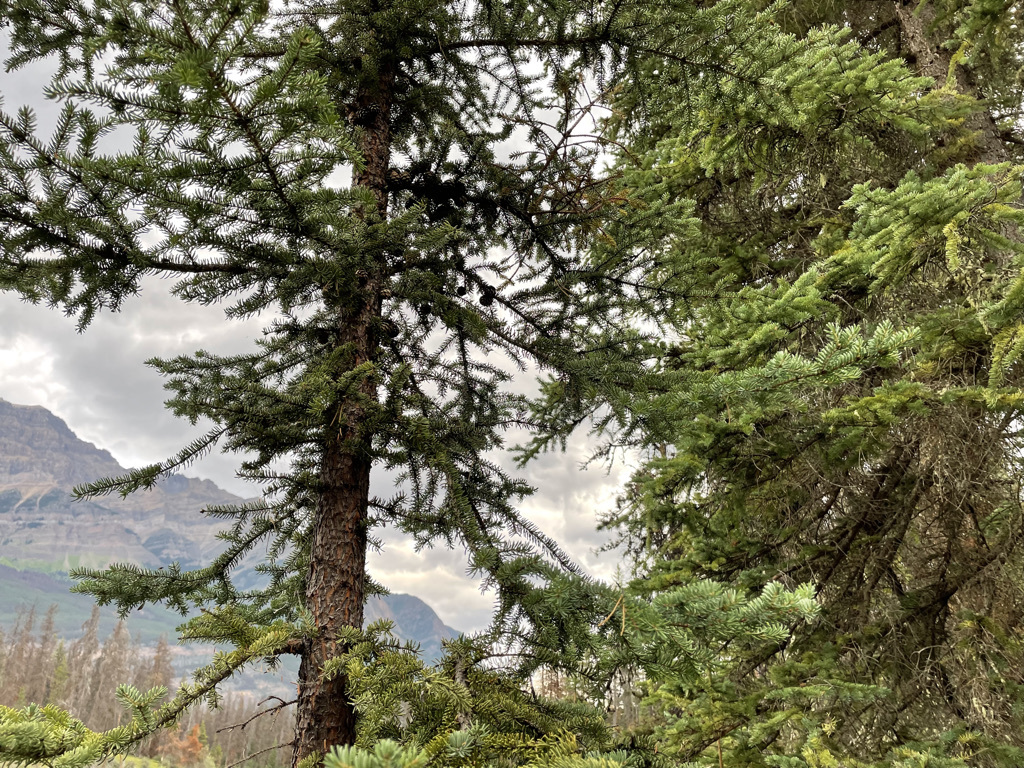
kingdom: Plantae
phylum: Tracheophyta
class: Pinopsida
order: Pinales
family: Pinaceae
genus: Picea
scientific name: Picea mariana
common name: Black spruce
